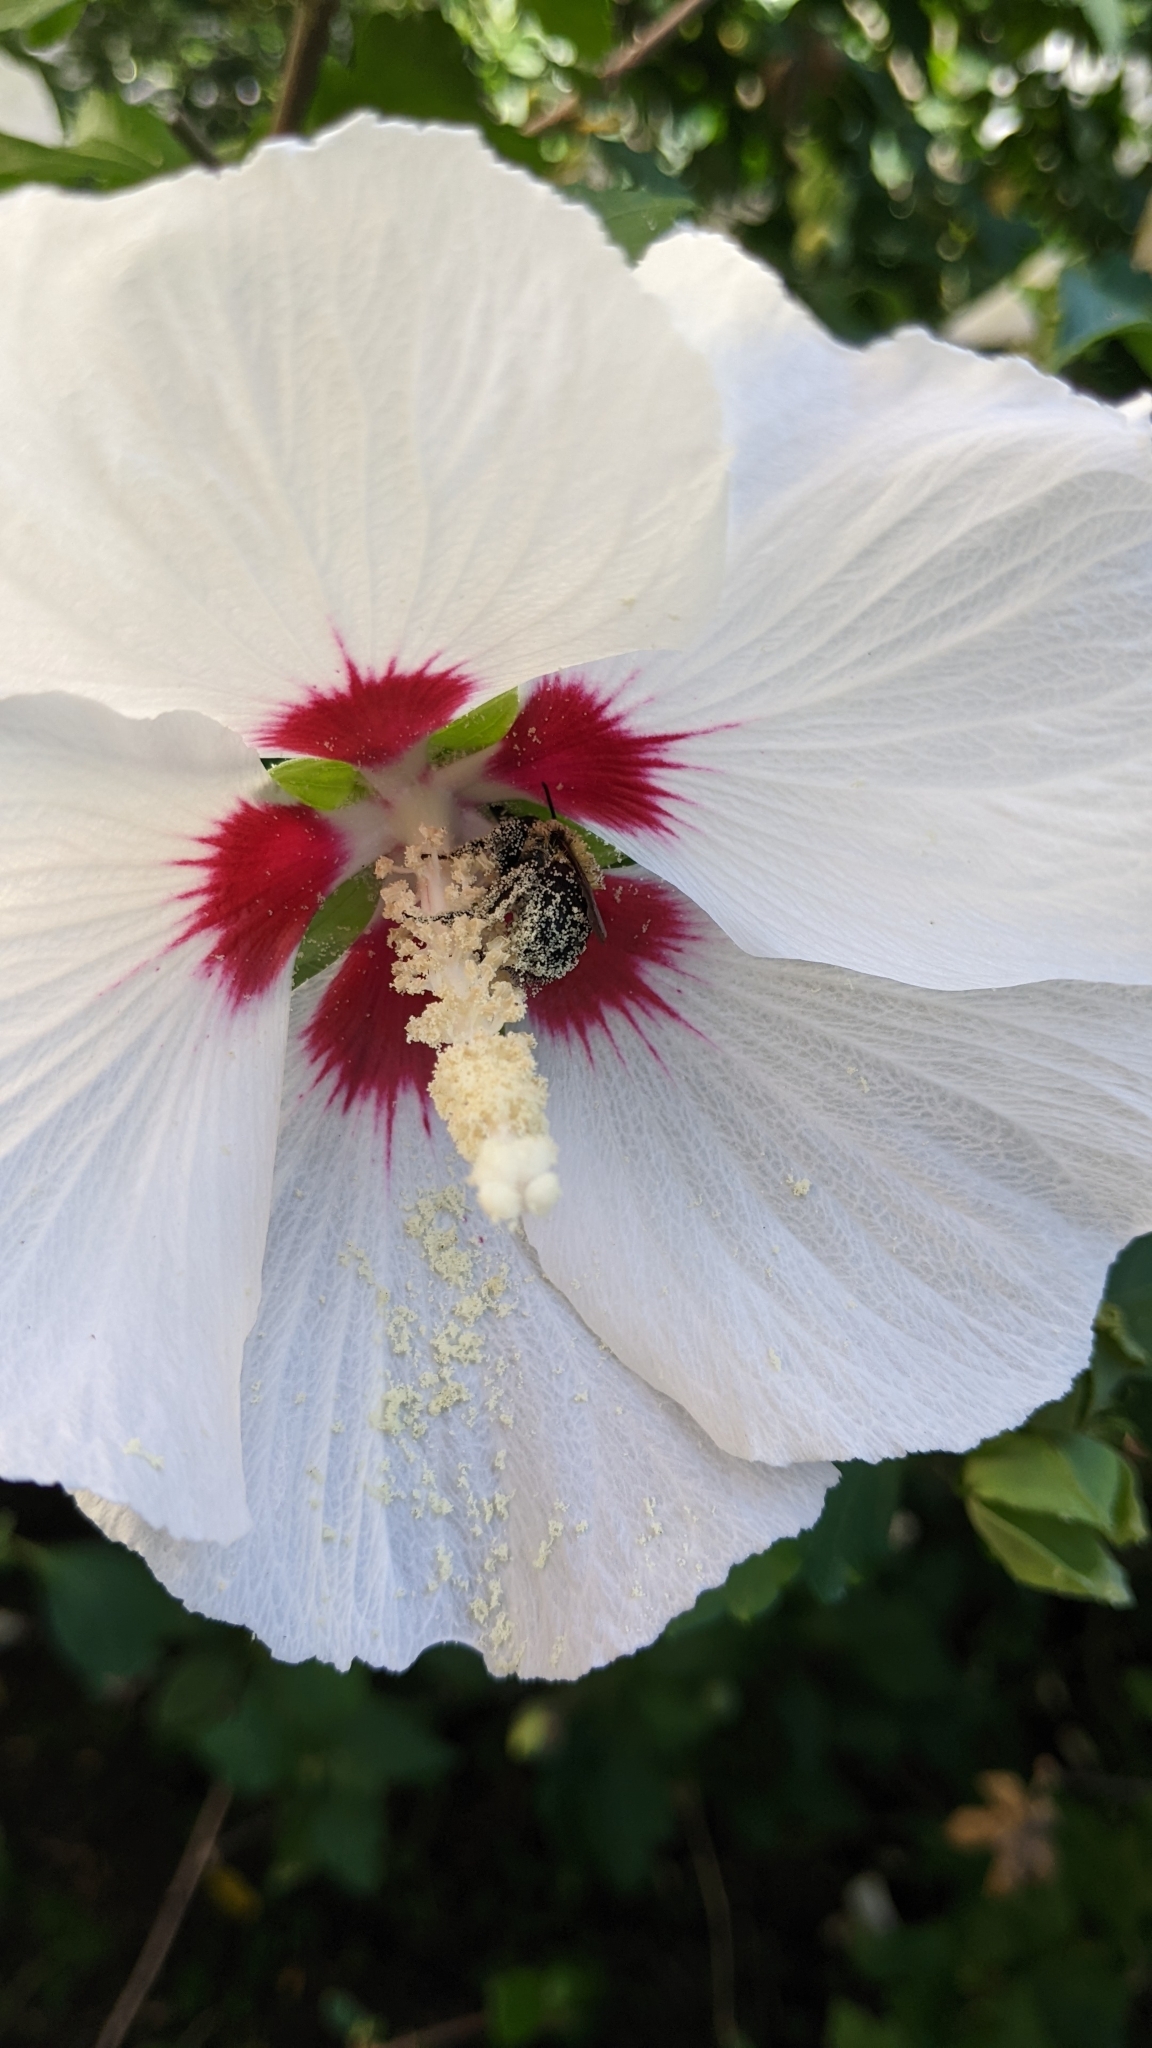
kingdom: Animalia
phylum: Arthropoda
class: Insecta
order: Hymenoptera
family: Apidae
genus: Bombus
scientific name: Bombus impatiens
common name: Common eastern bumble bee
